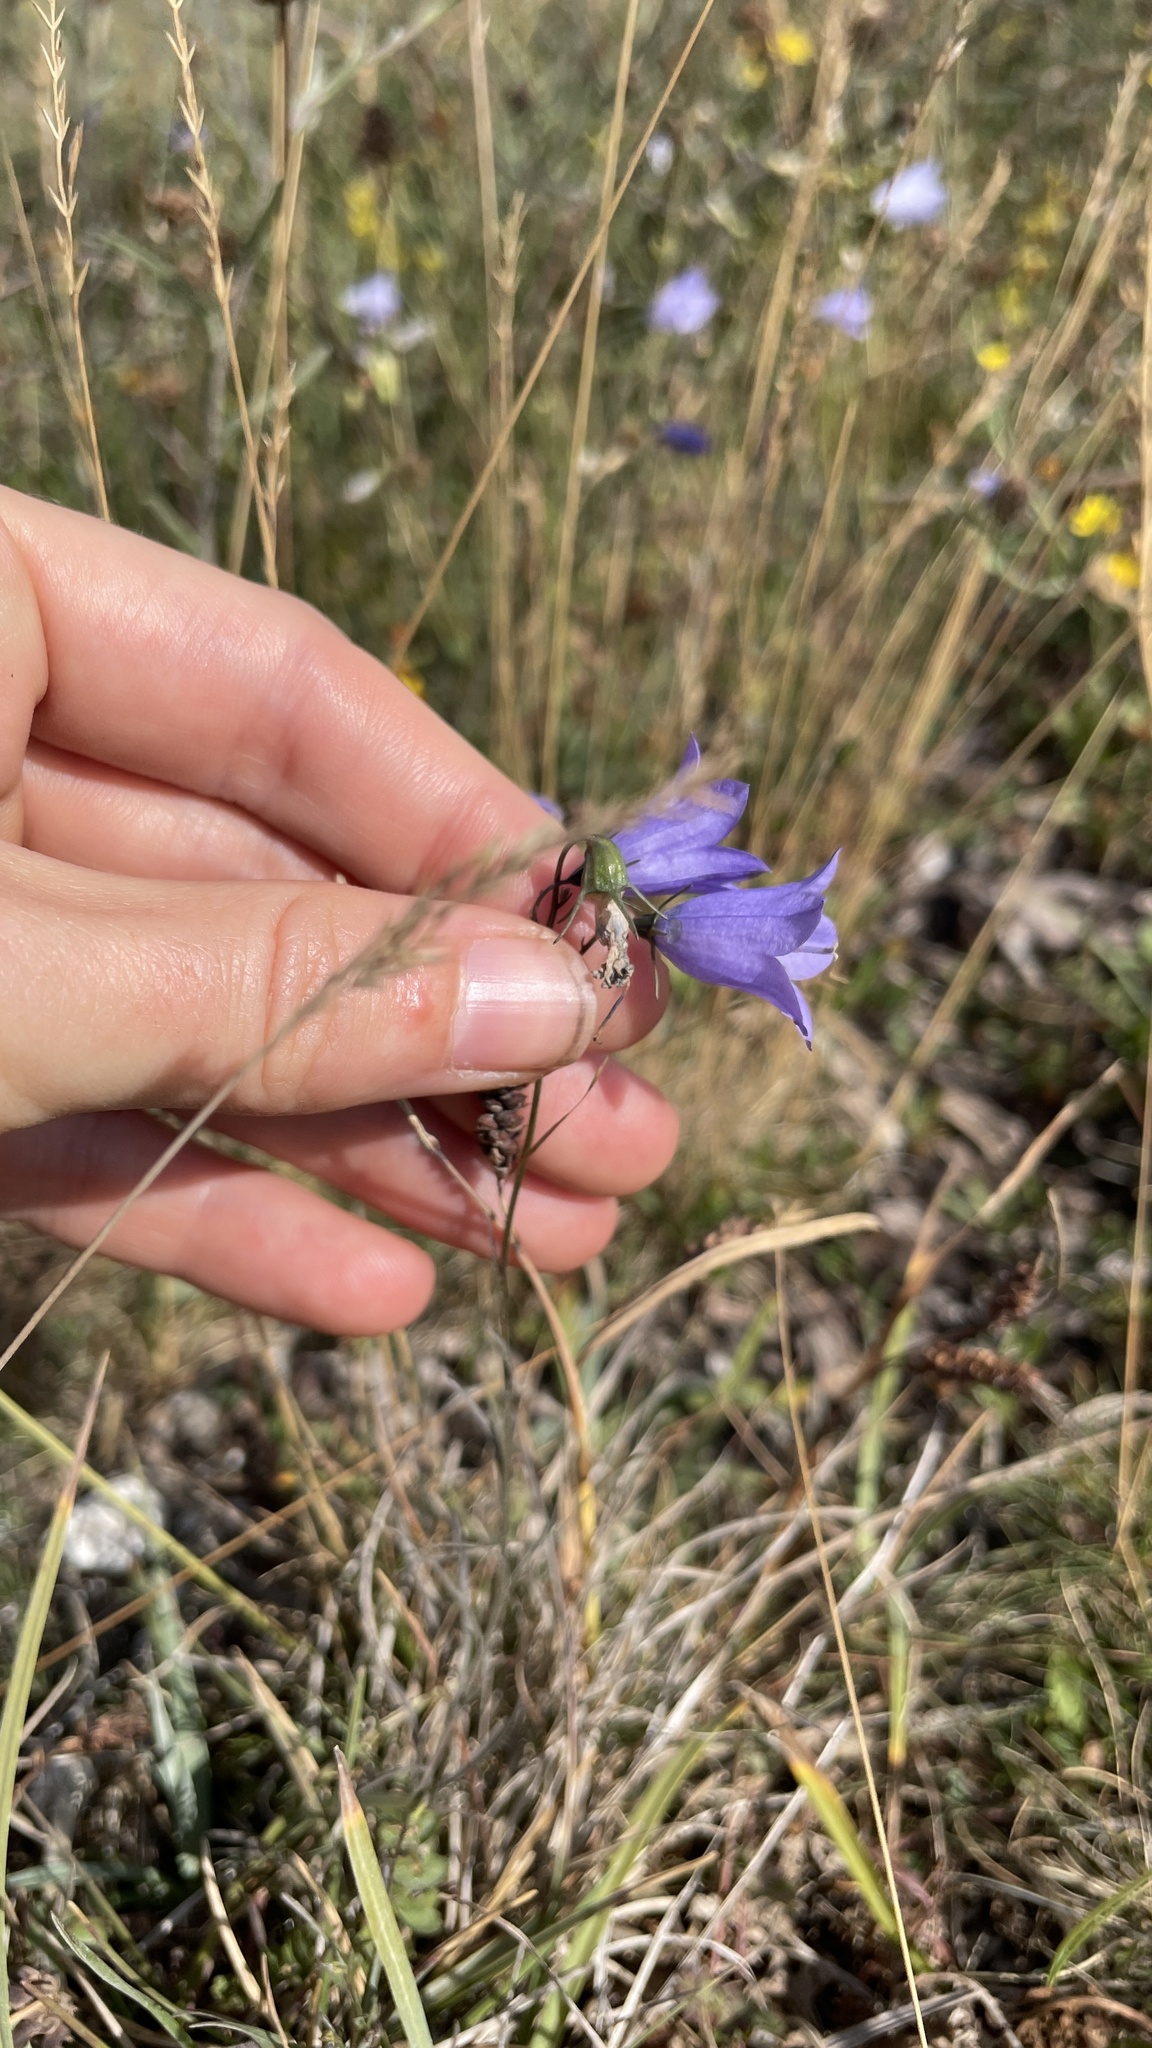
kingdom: Plantae
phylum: Tracheophyta
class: Magnoliopsida
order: Asterales
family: Campanulaceae
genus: Campanula
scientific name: Campanula rotundifolia
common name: Harebell
